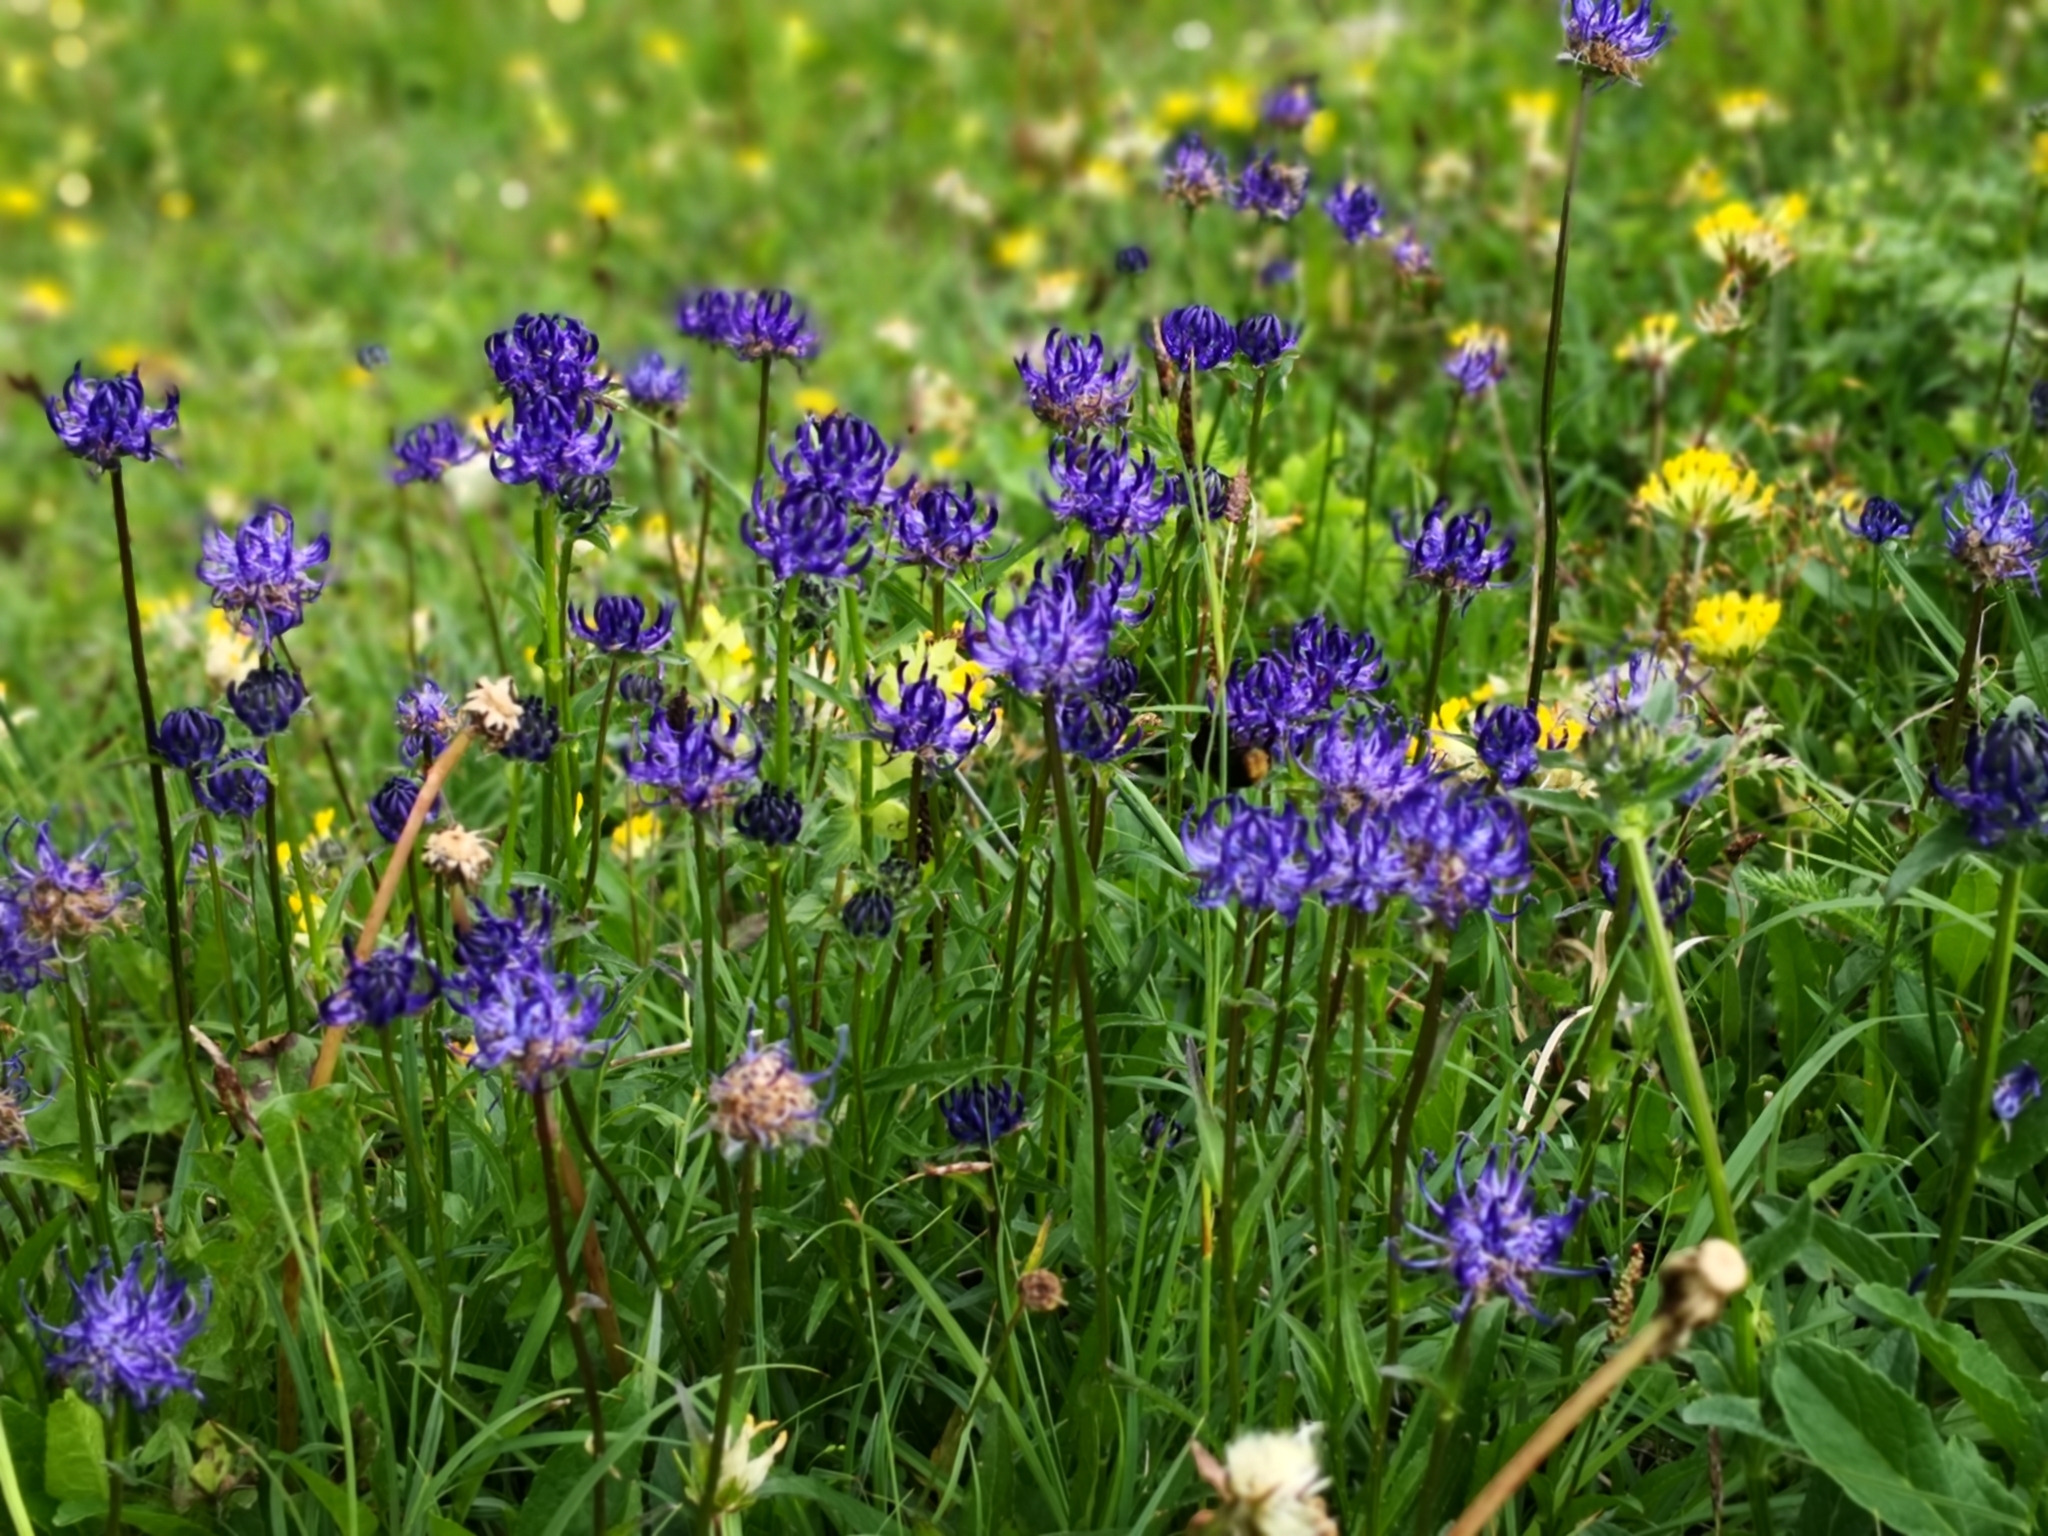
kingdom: Plantae
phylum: Tracheophyta
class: Magnoliopsida
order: Asterales
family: Campanulaceae
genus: Phyteuma
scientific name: Phyteuma orbiculare
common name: Round-headed rampion
